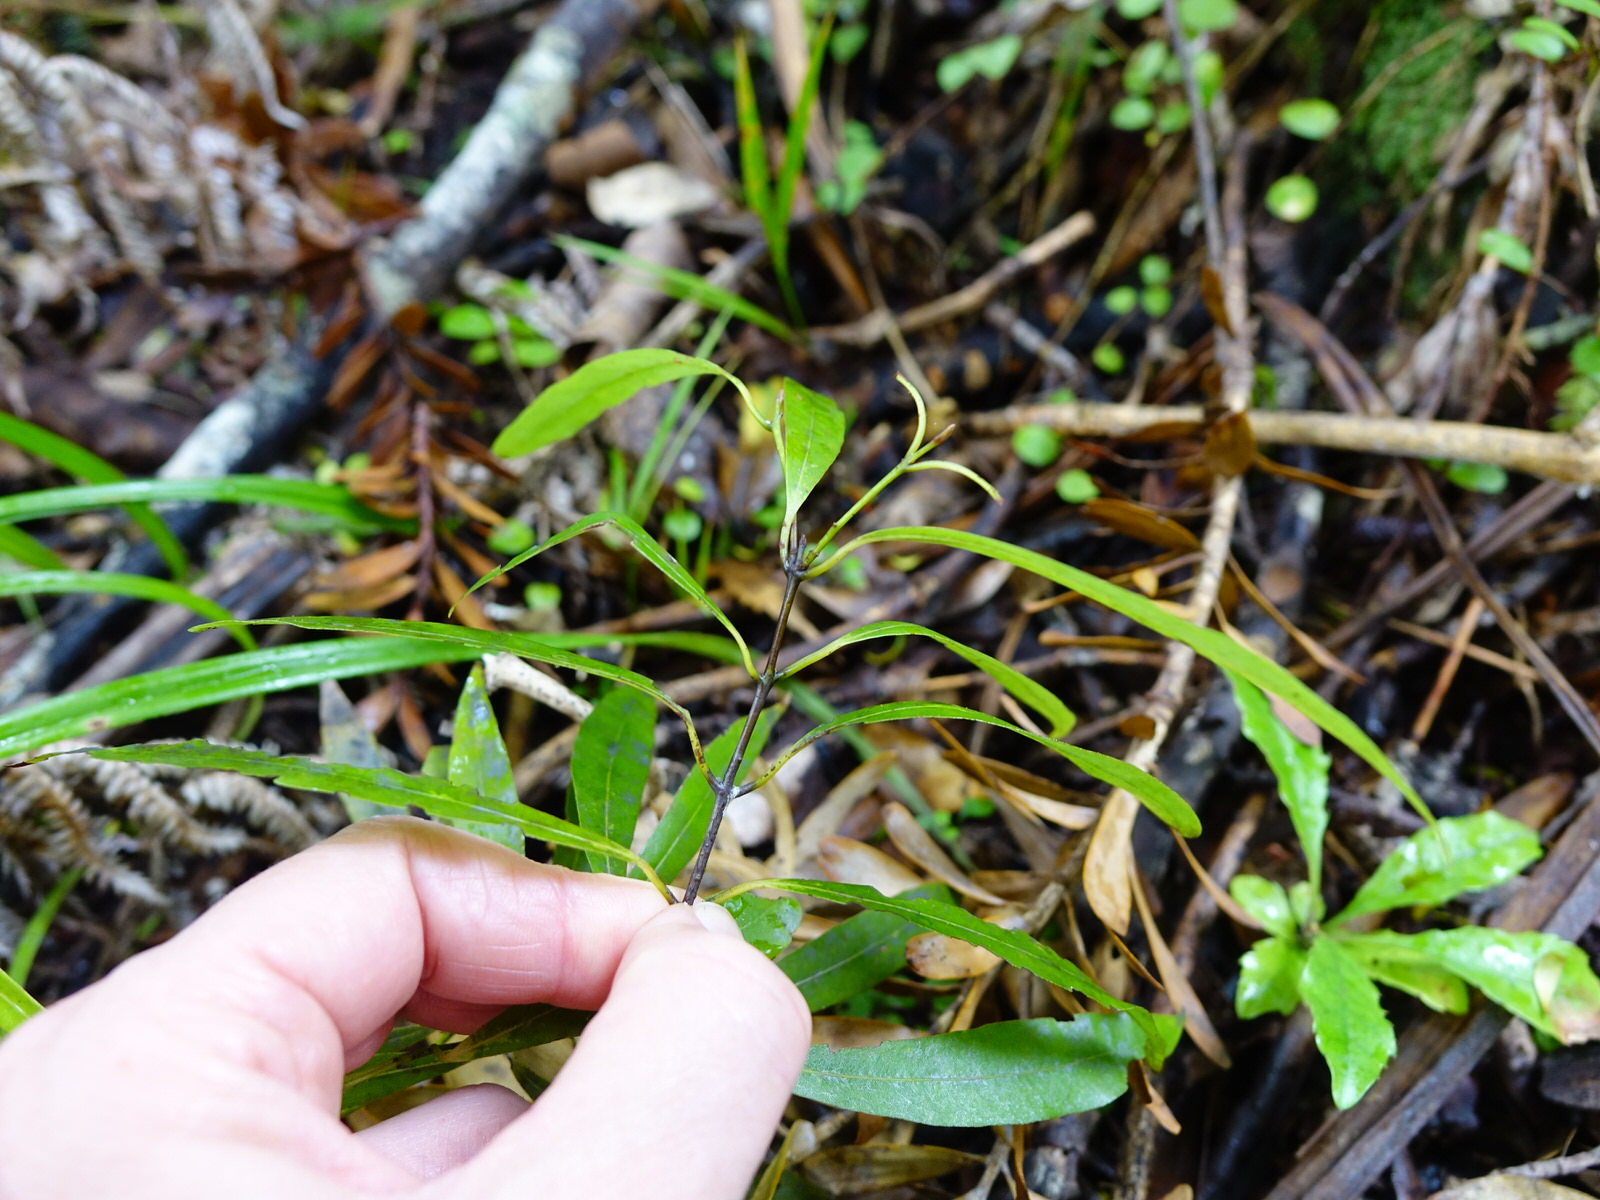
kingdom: Plantae
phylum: Tracheophyta
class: Magnoliopsida
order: Laurales
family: Lauraceae
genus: Beilschmiedia
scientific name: Beilschmiedia tawa
